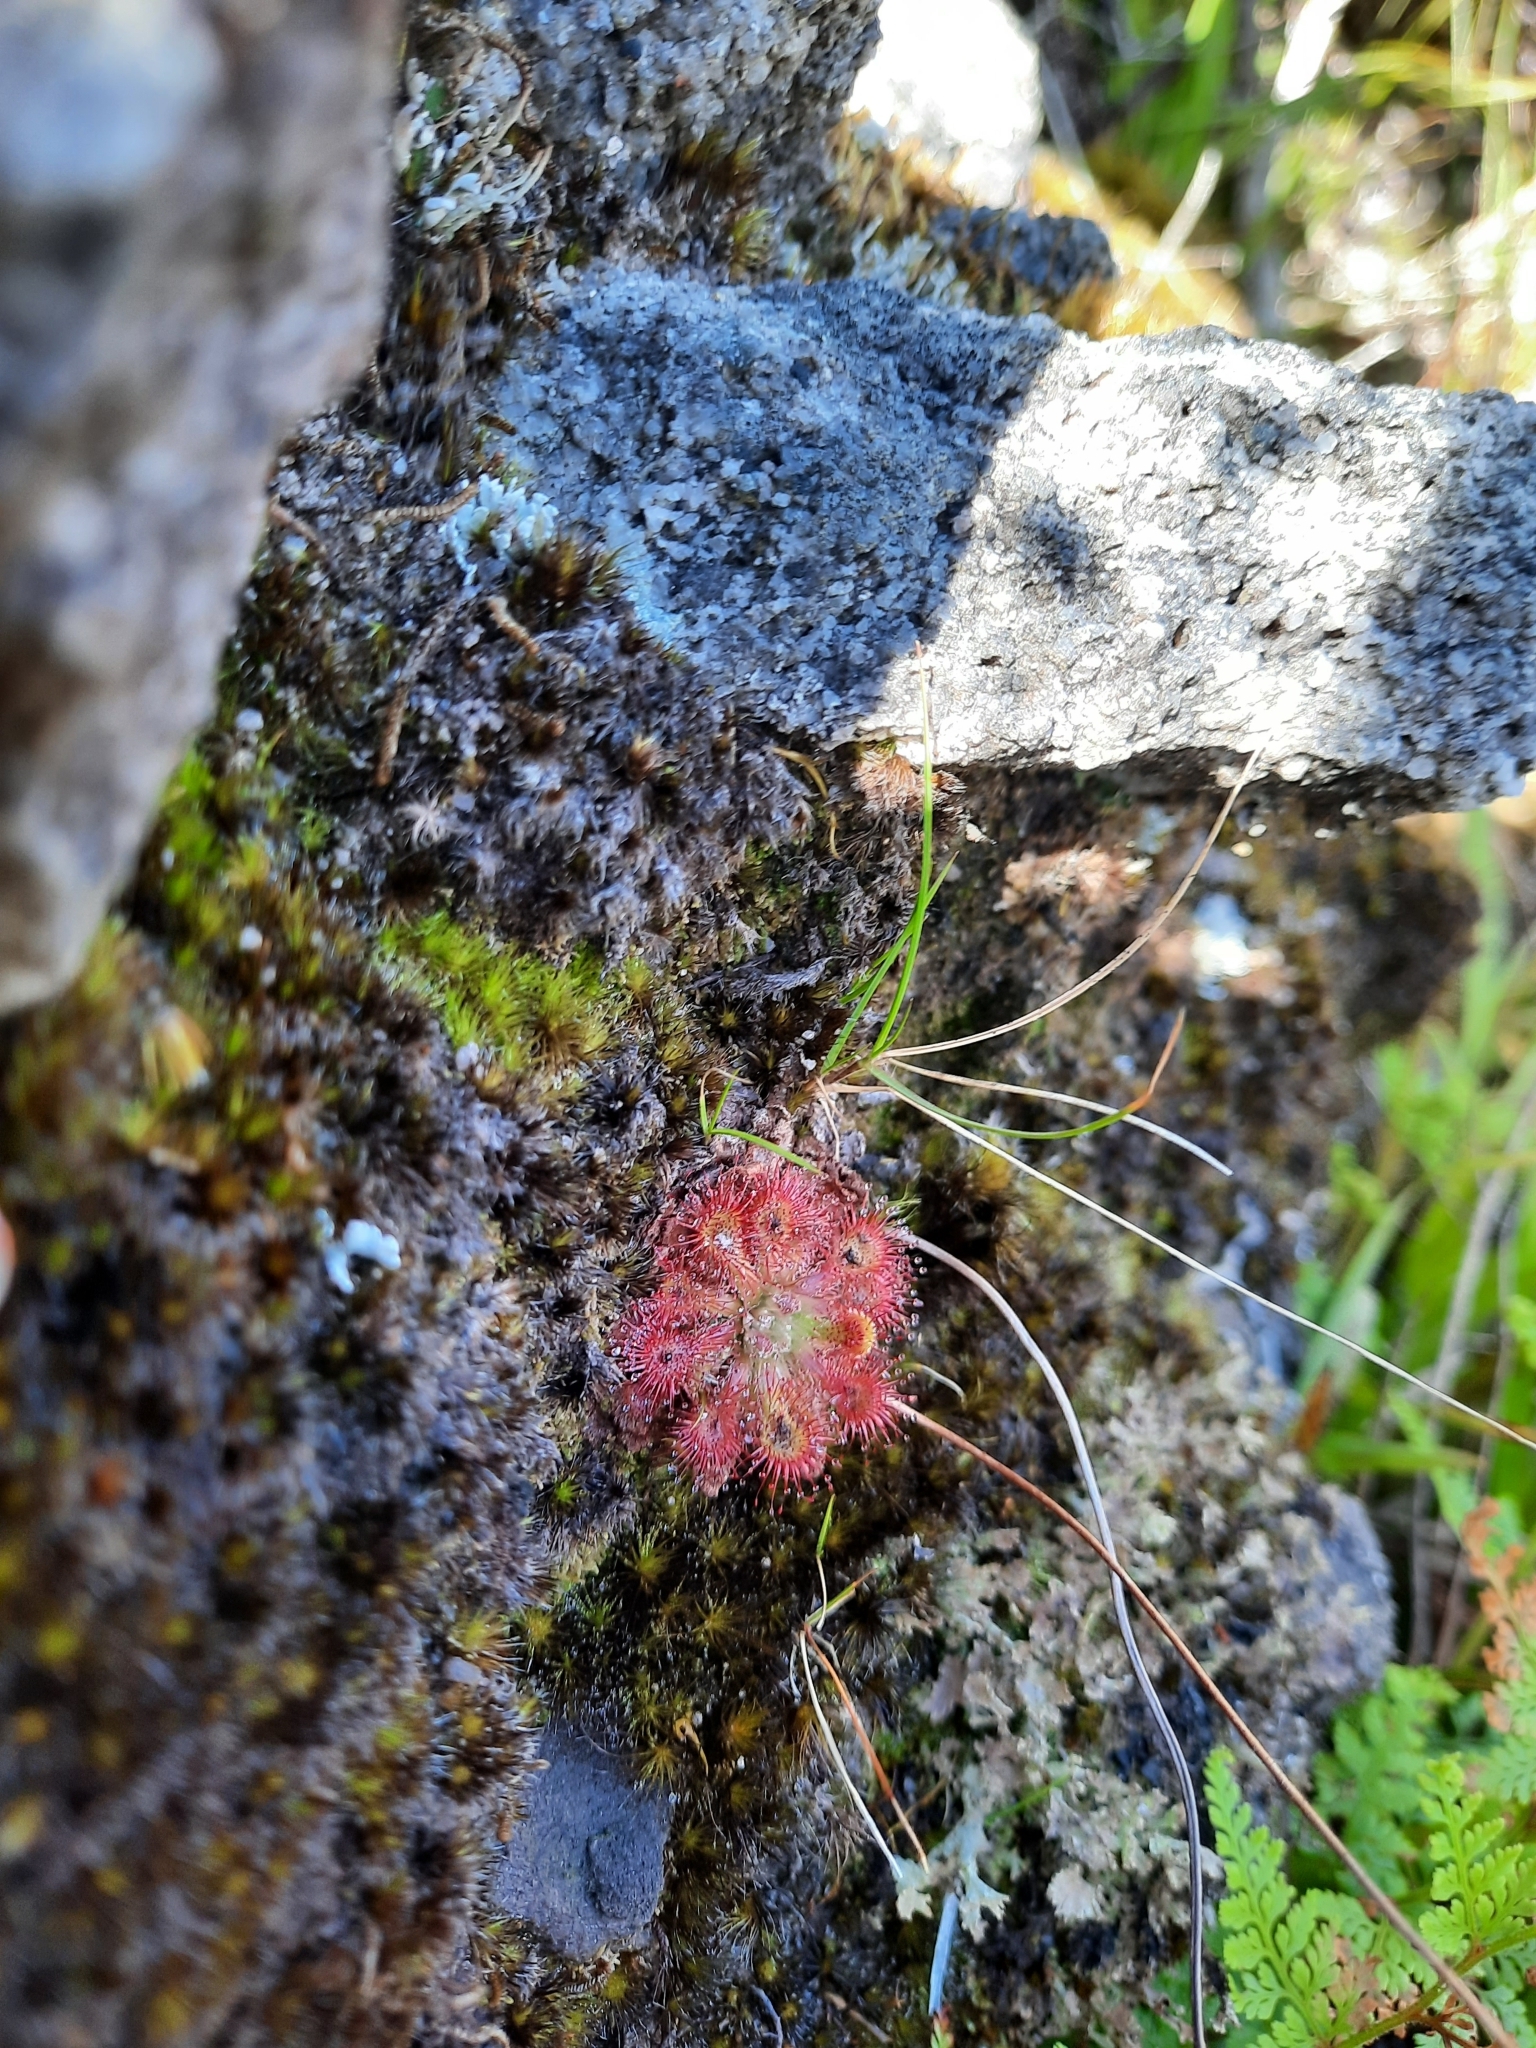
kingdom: Plantae
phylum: Tracheophyta
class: Magnoliopsida
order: Caryophyllales
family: Droseraceae
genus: Drosera
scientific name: Drosera spatulata
